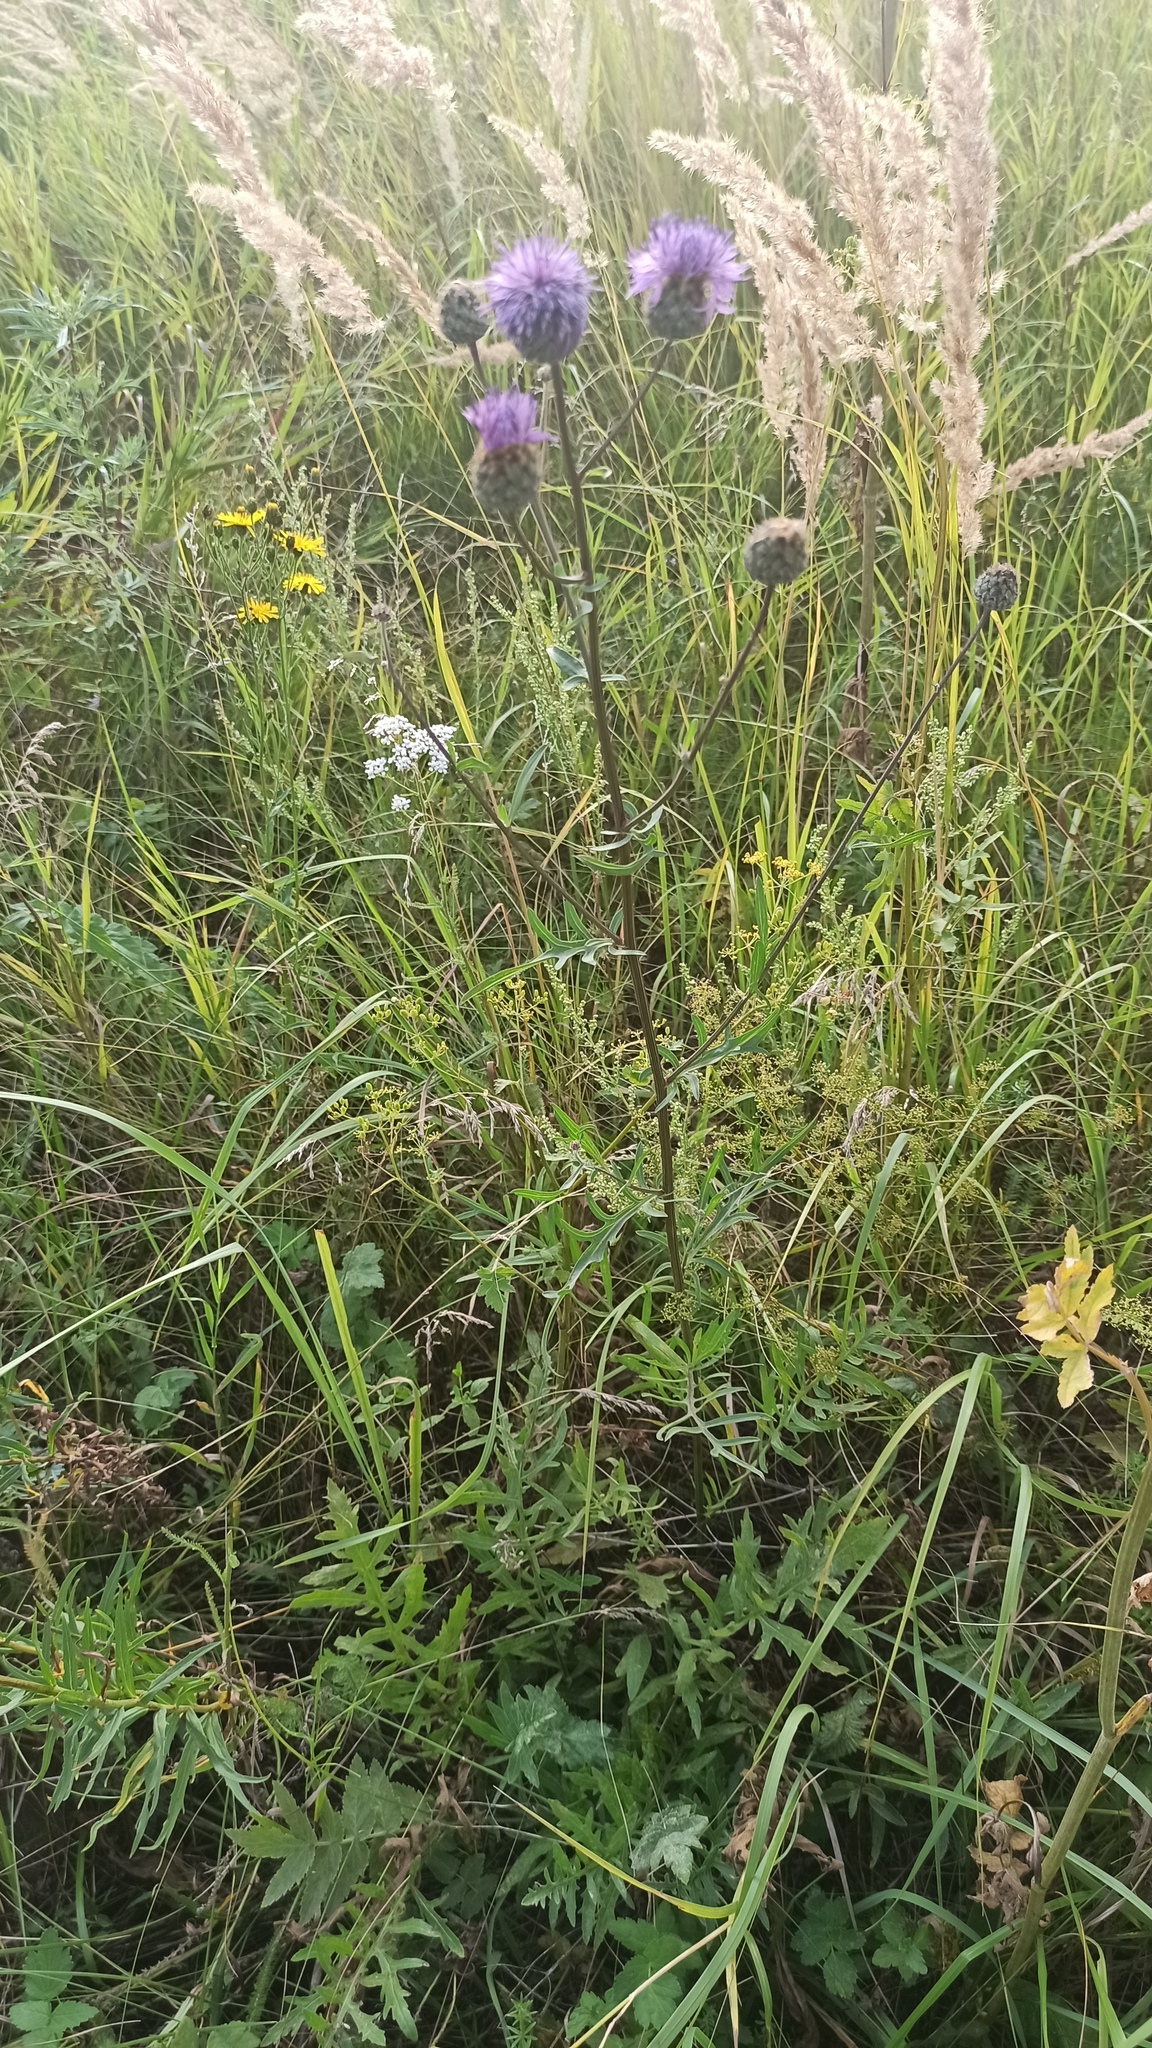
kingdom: Plantae
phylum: Tracheophyta
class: Magnoliopsida
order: Asterales
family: Asteraceae
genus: Centaurea
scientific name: Centaurea scabiosa
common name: Greater knapweed
